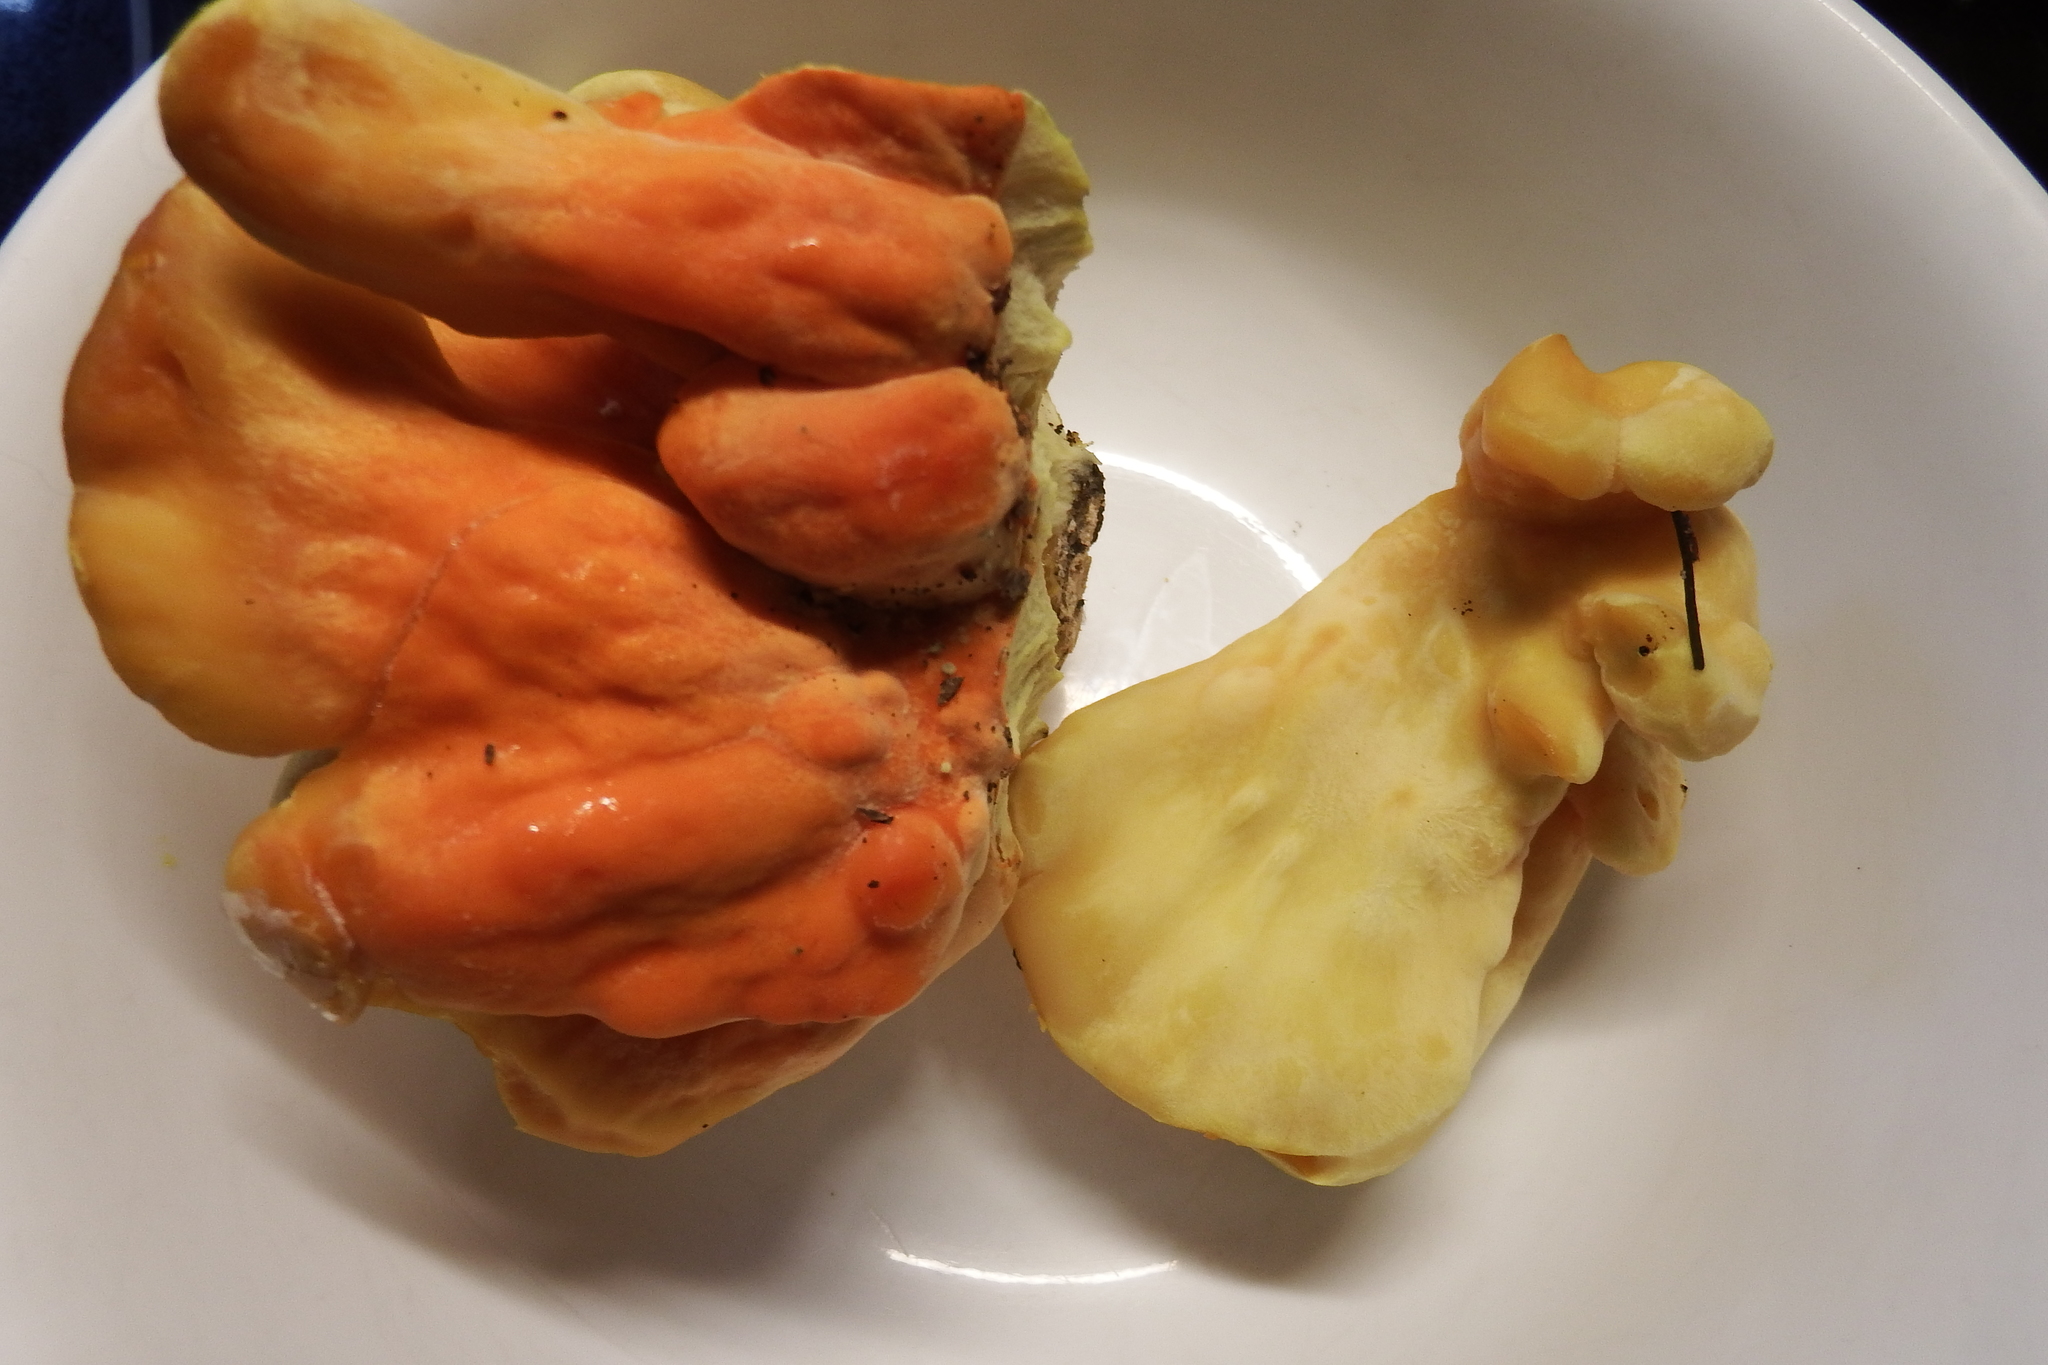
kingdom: Fungi
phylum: Basidiomycota
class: Agaricomycetes
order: Polyporales
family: Laetiporaceae
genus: Laetiporus
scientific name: Laetiporus sulphureus
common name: Chicken of the woods
